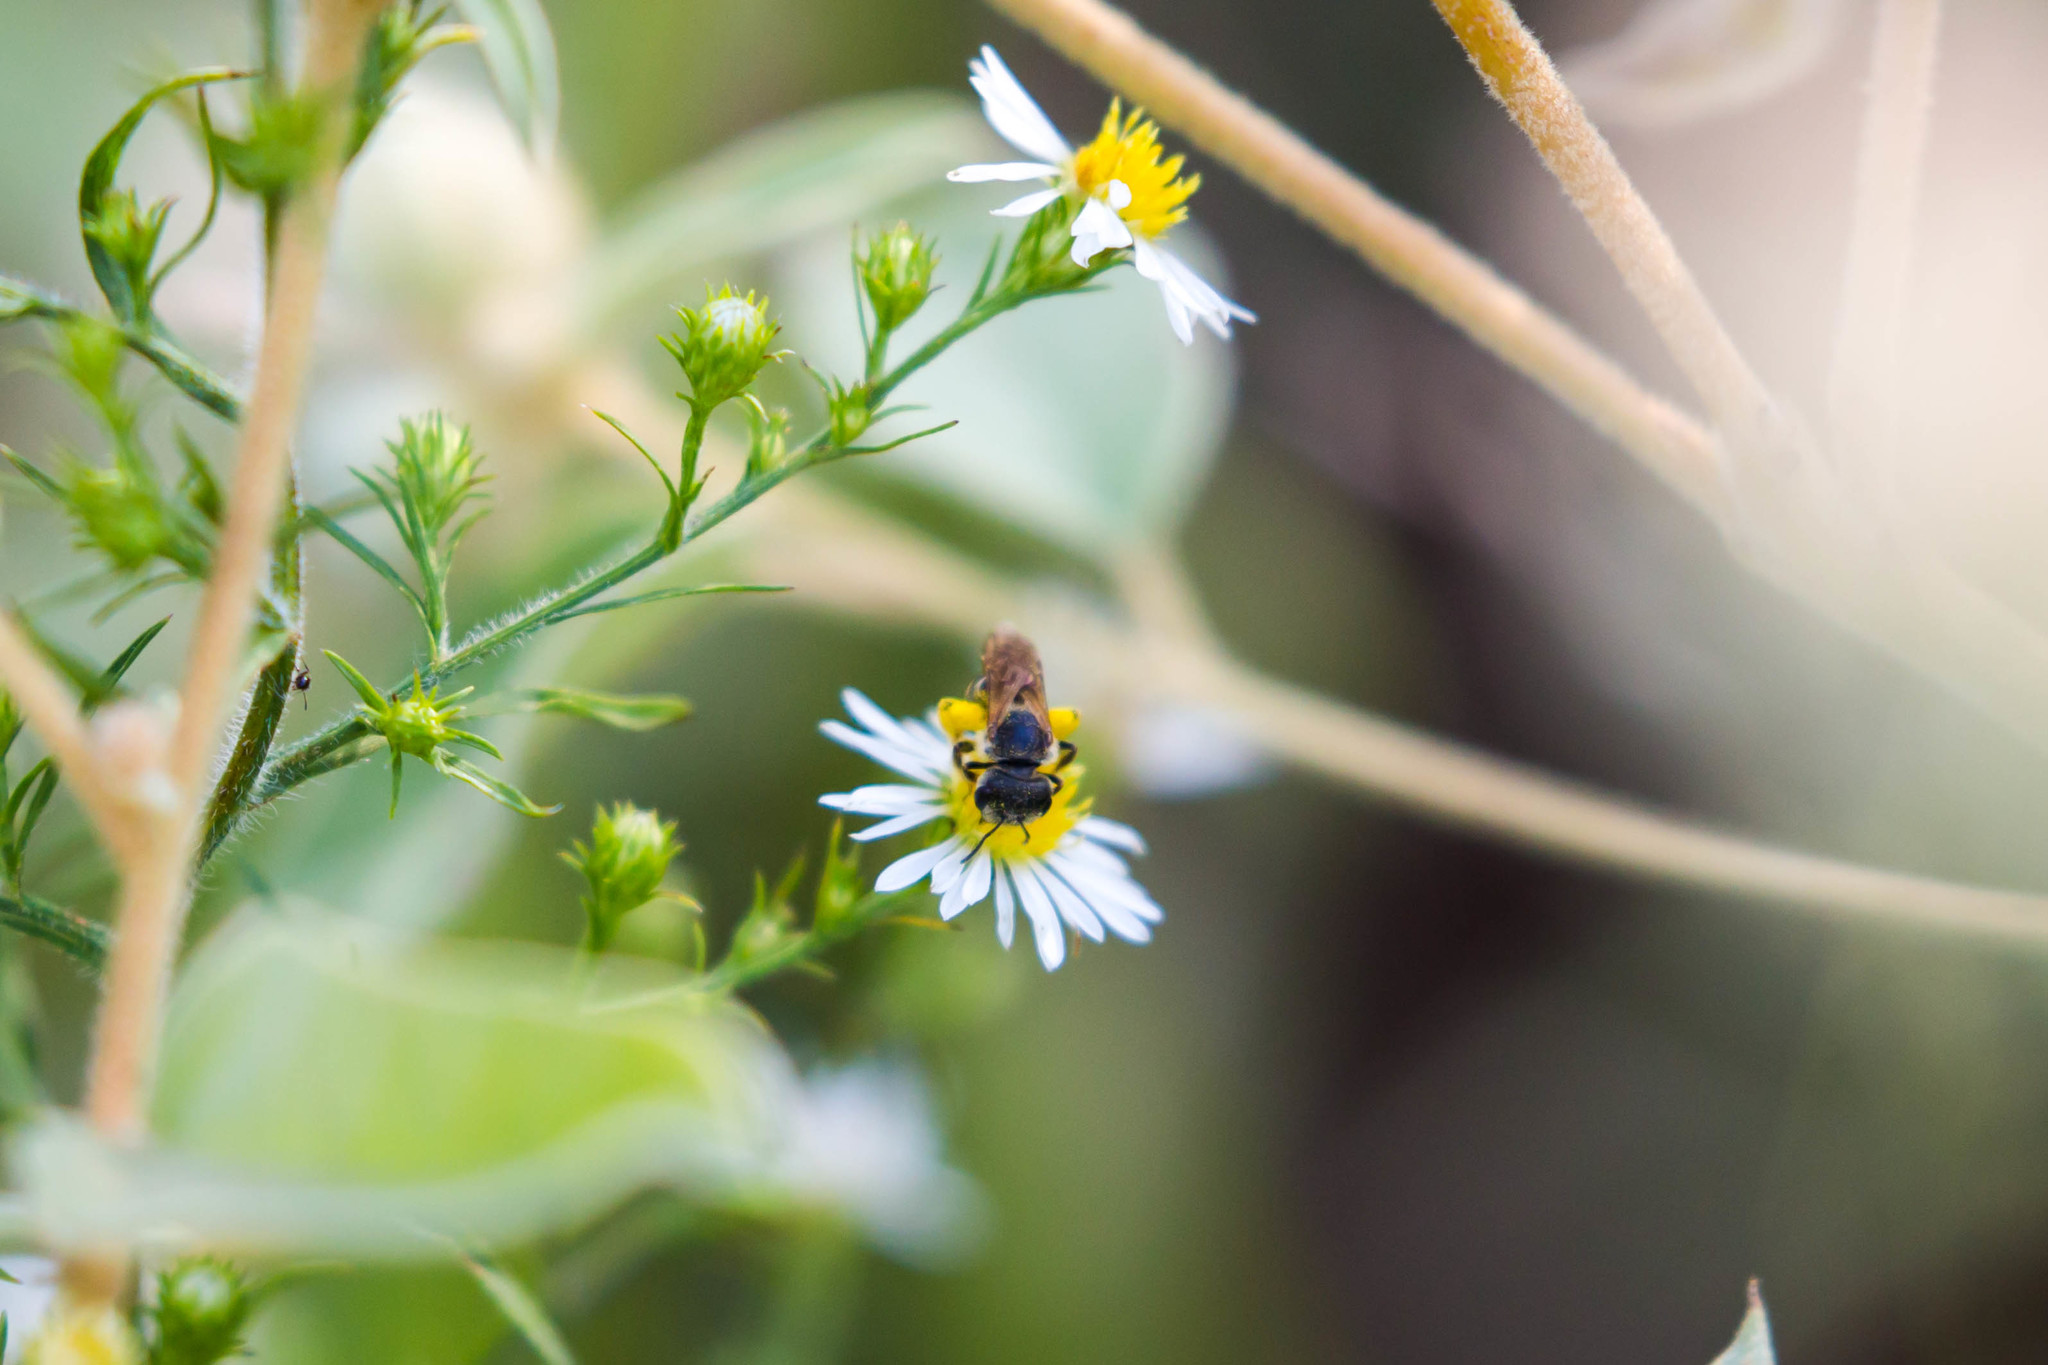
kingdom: Animalia
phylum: Arthropoda
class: Insecta
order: Hymenoptera
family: Halictidae
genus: Halictus
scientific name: Halictus ligatus
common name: Ligated furrow bee
